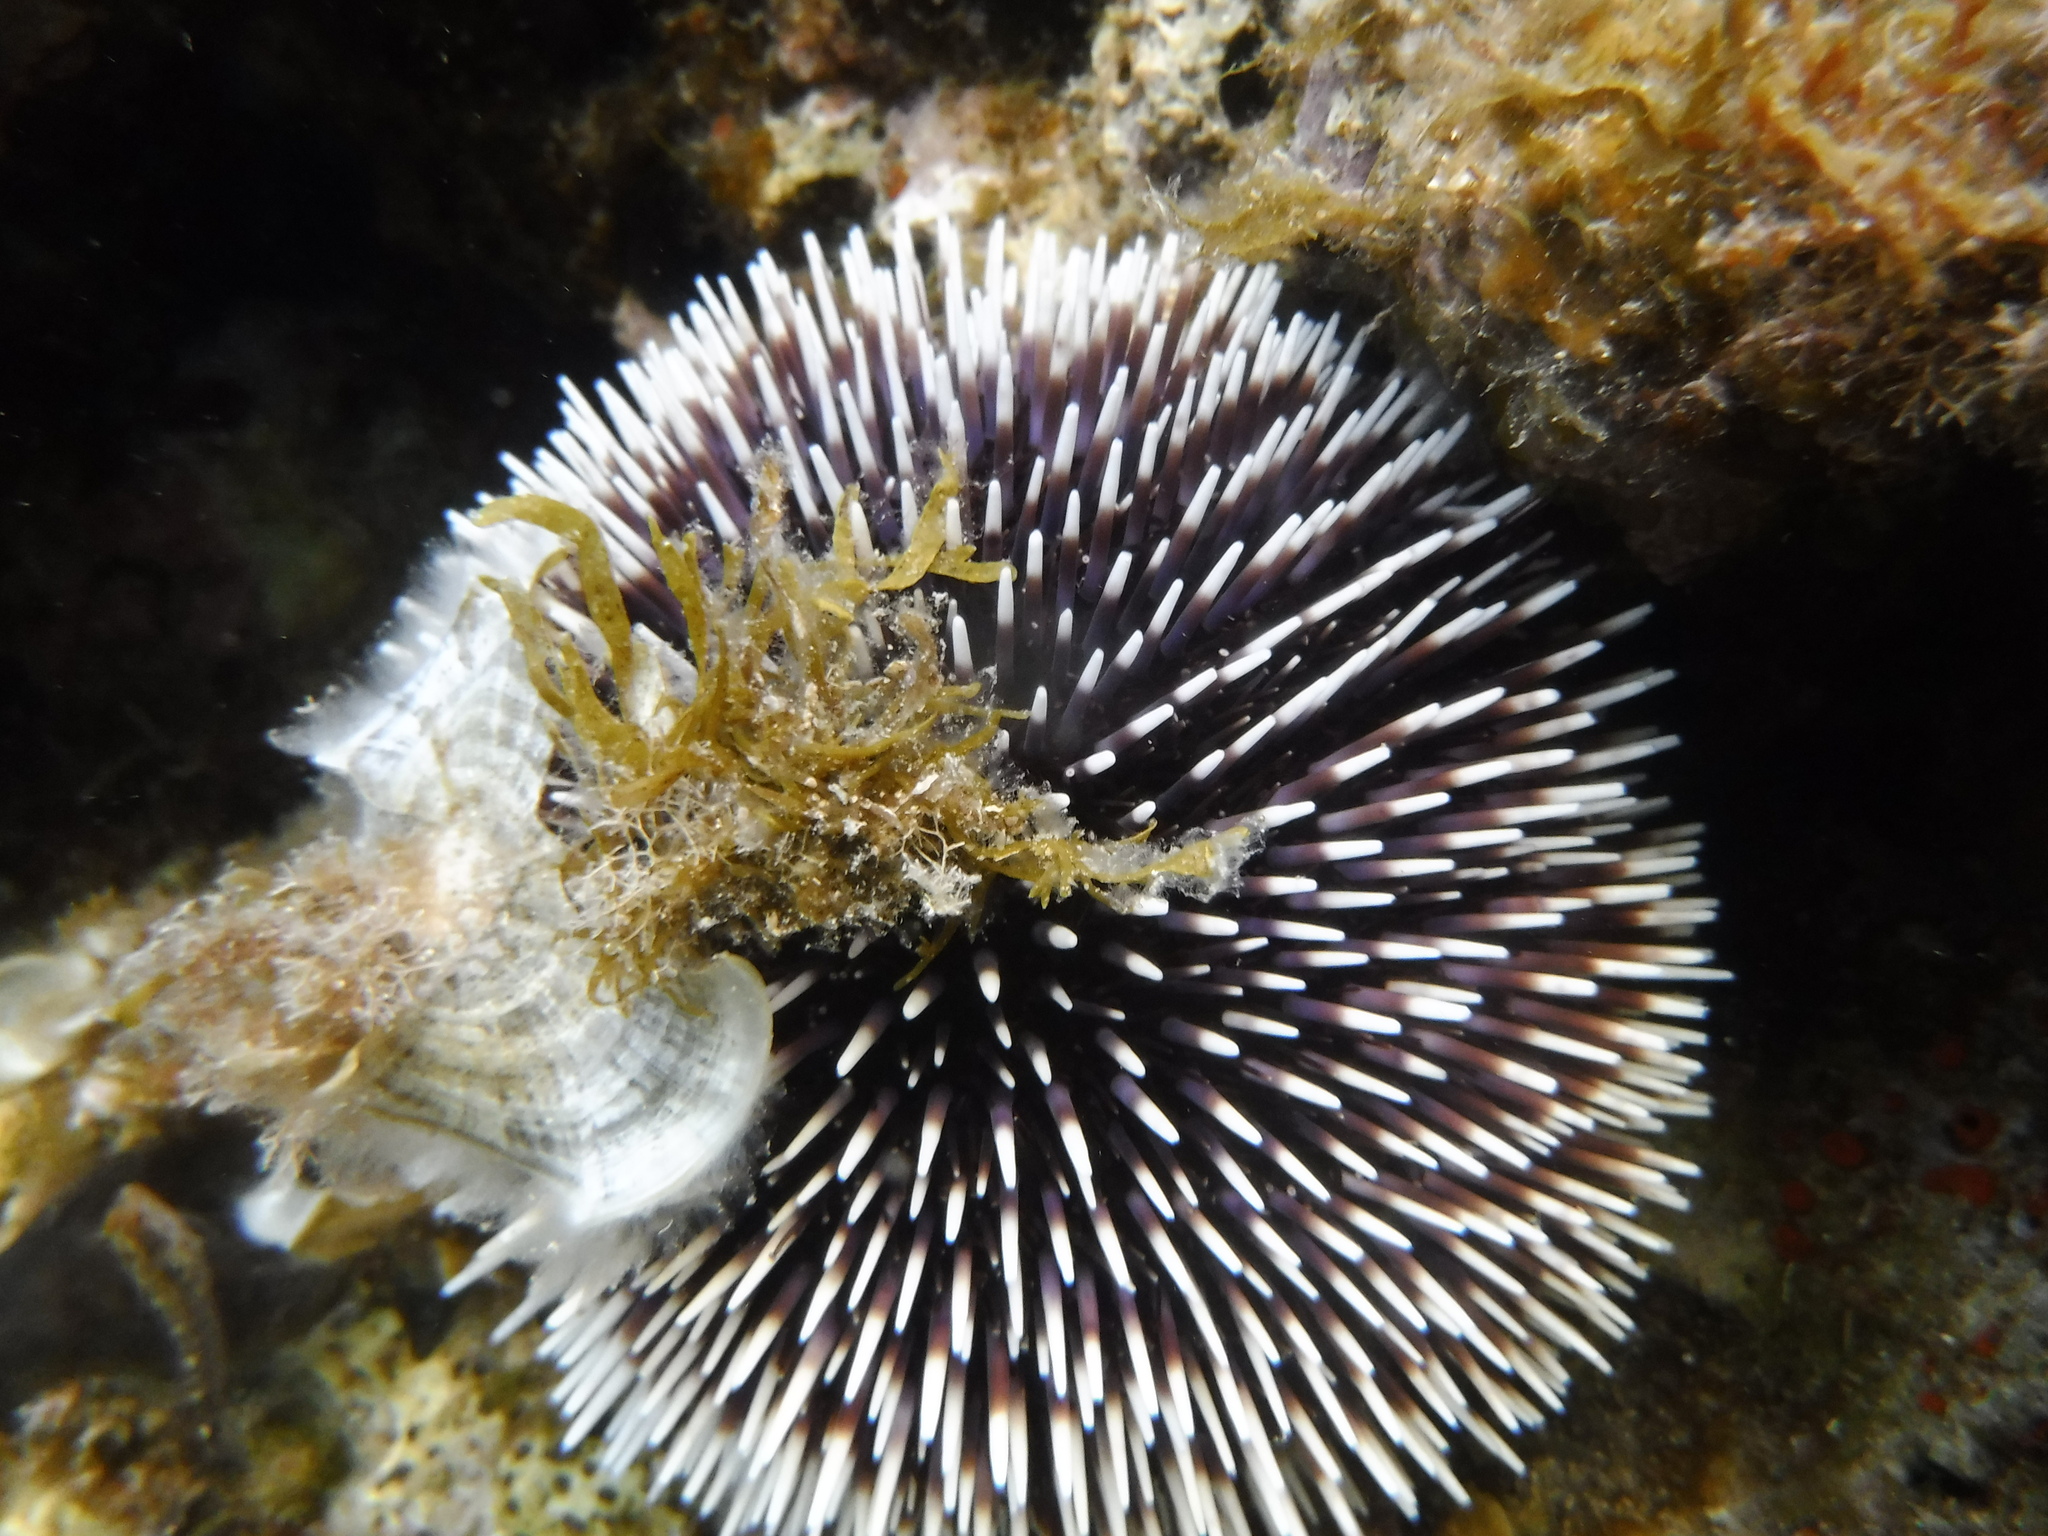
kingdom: Animalia
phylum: Echinodermata
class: Echinoidea
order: Camarodonta
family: Toxopneustidae
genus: Sphaerechinus
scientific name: Sphaerechinus granularis
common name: Violet sea urchin
